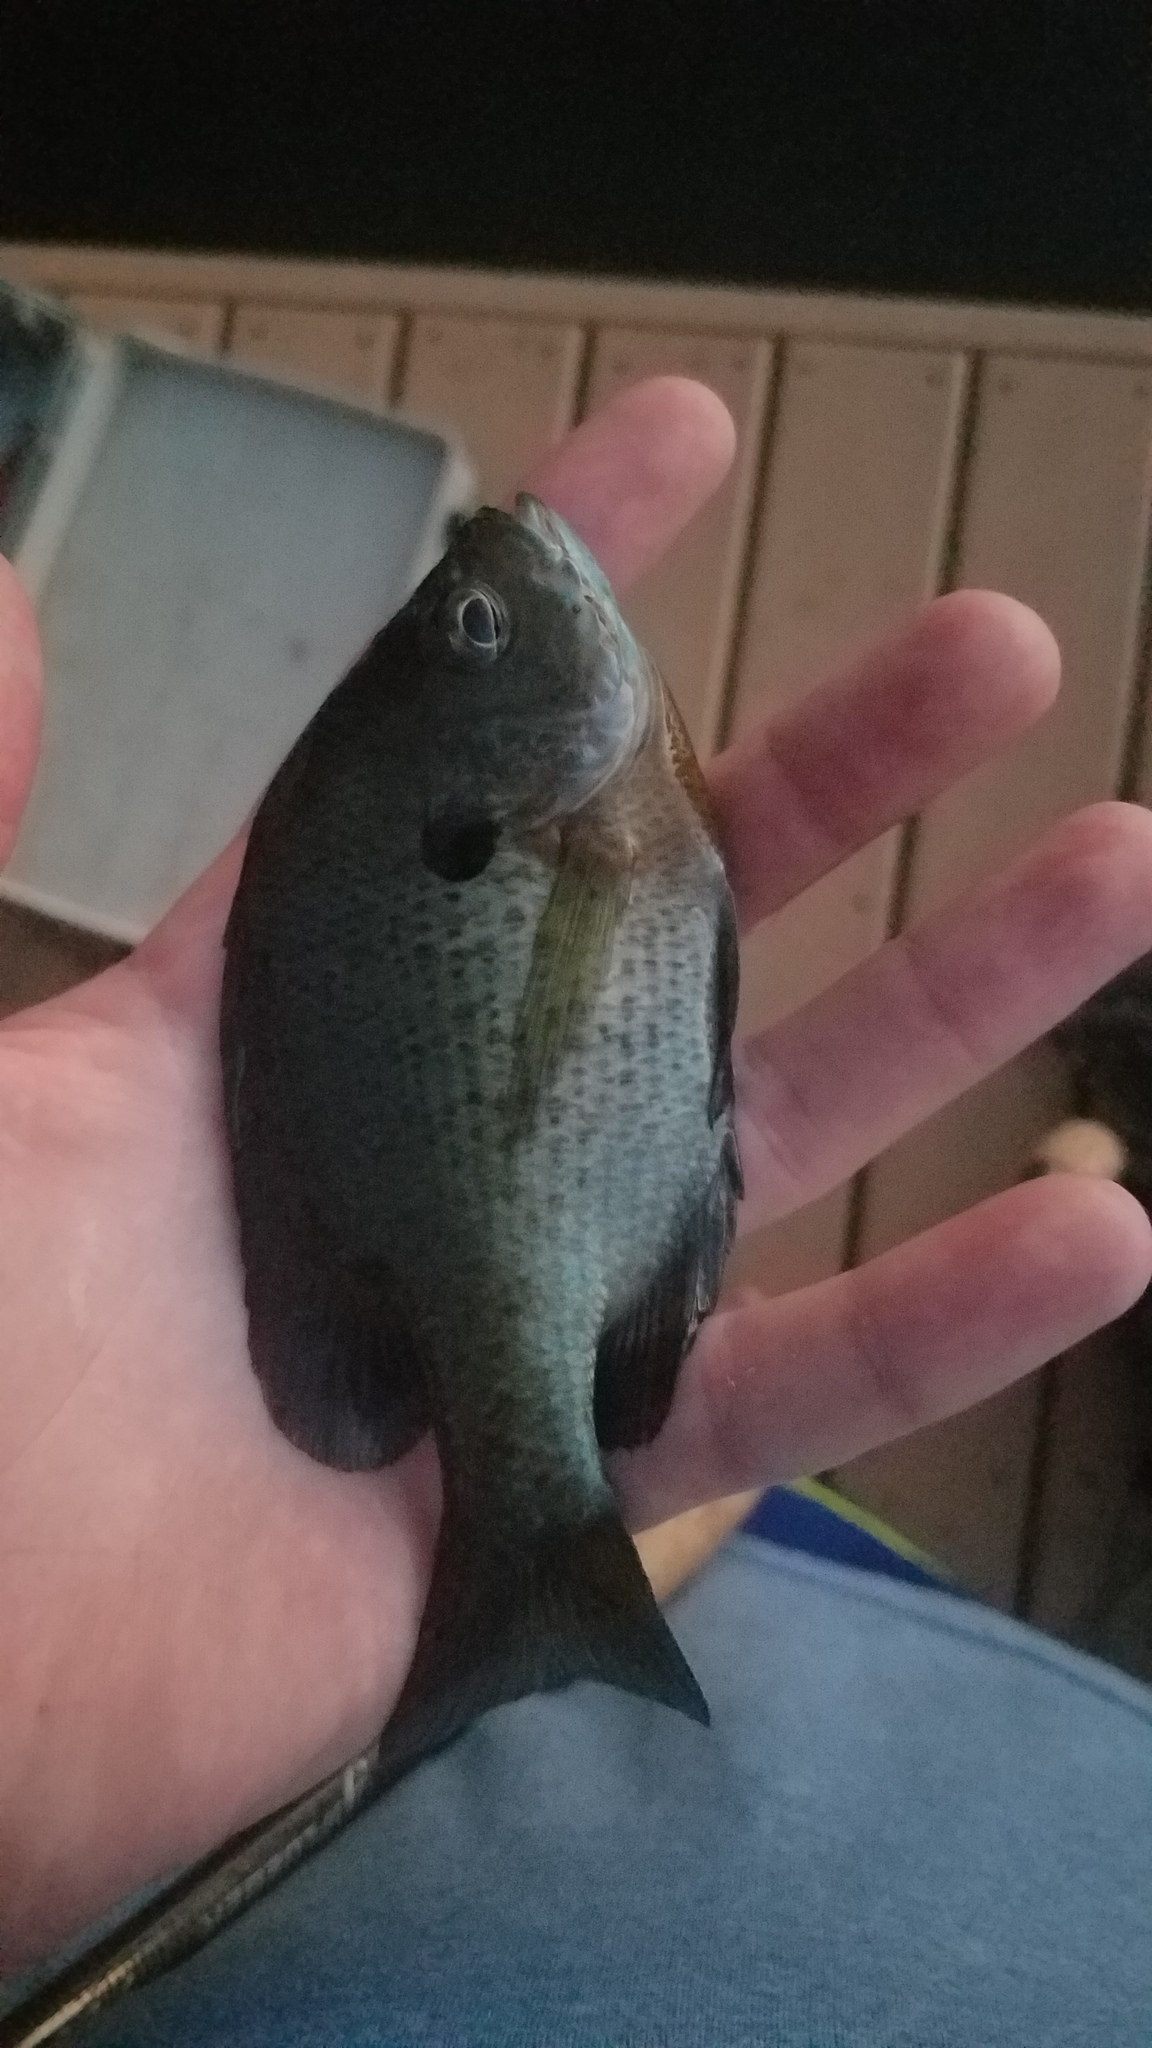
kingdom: Animalia
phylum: Chordata
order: Perciformes
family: Centrarchidae
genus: Lepomis
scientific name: Lepomis macrochirus
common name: Bluegill
